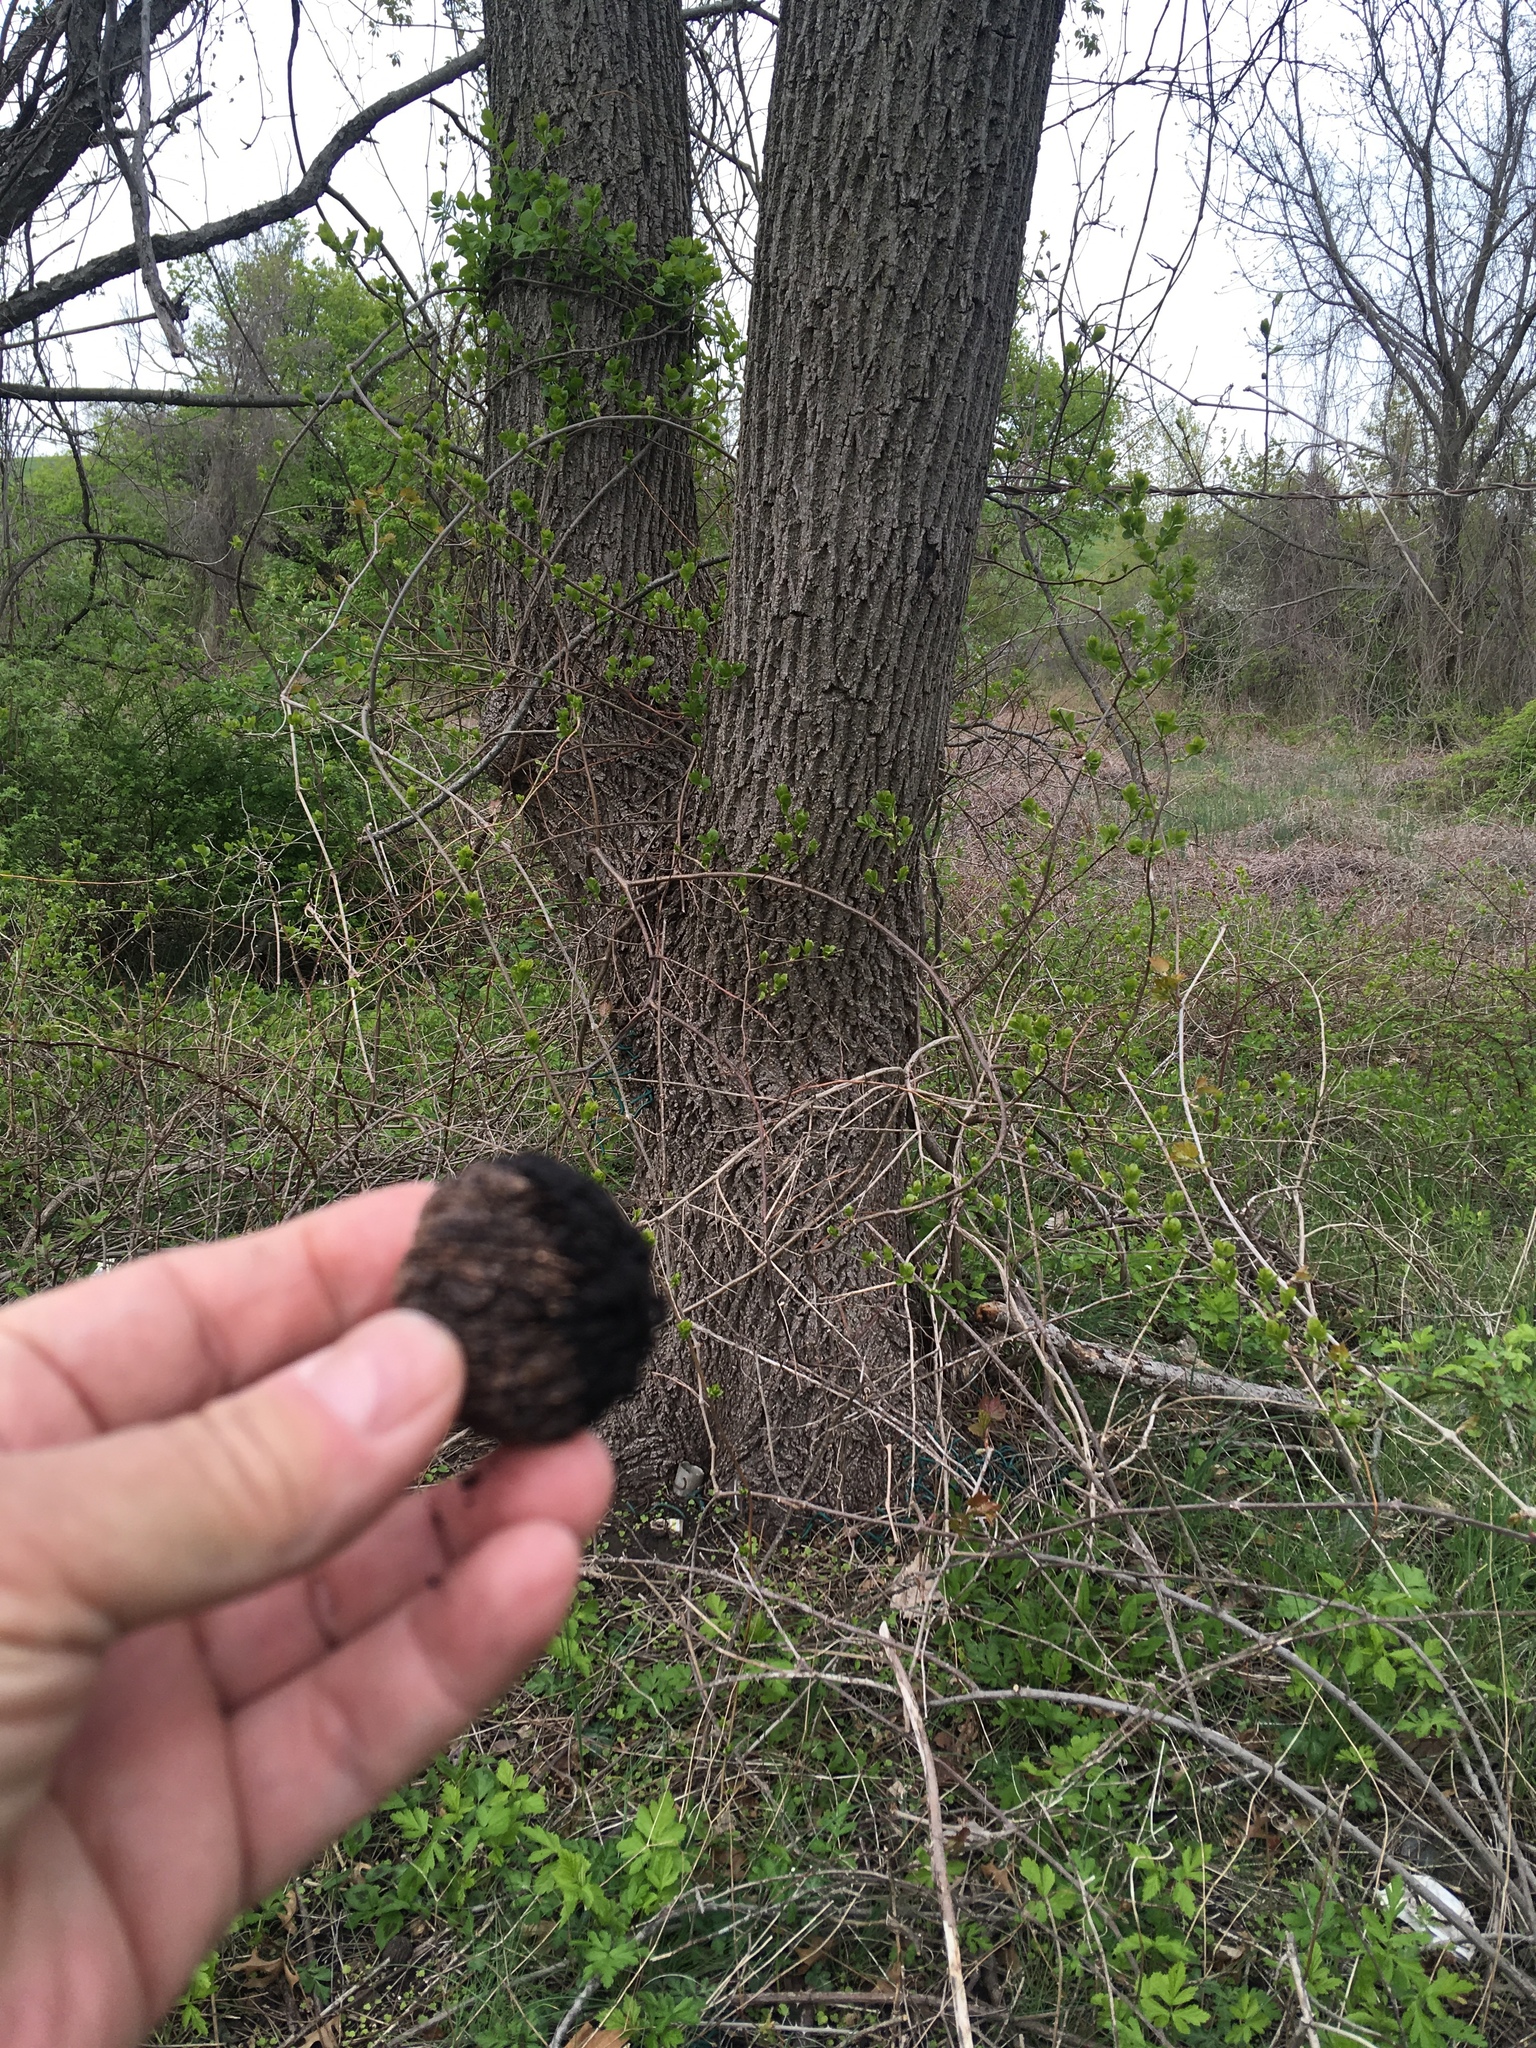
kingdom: Plantae
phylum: Tracheophyta
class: Magnoliopsida
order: Fagales
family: Juglandaceae
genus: Juglans
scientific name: Juglans nigra
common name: Black walnut
